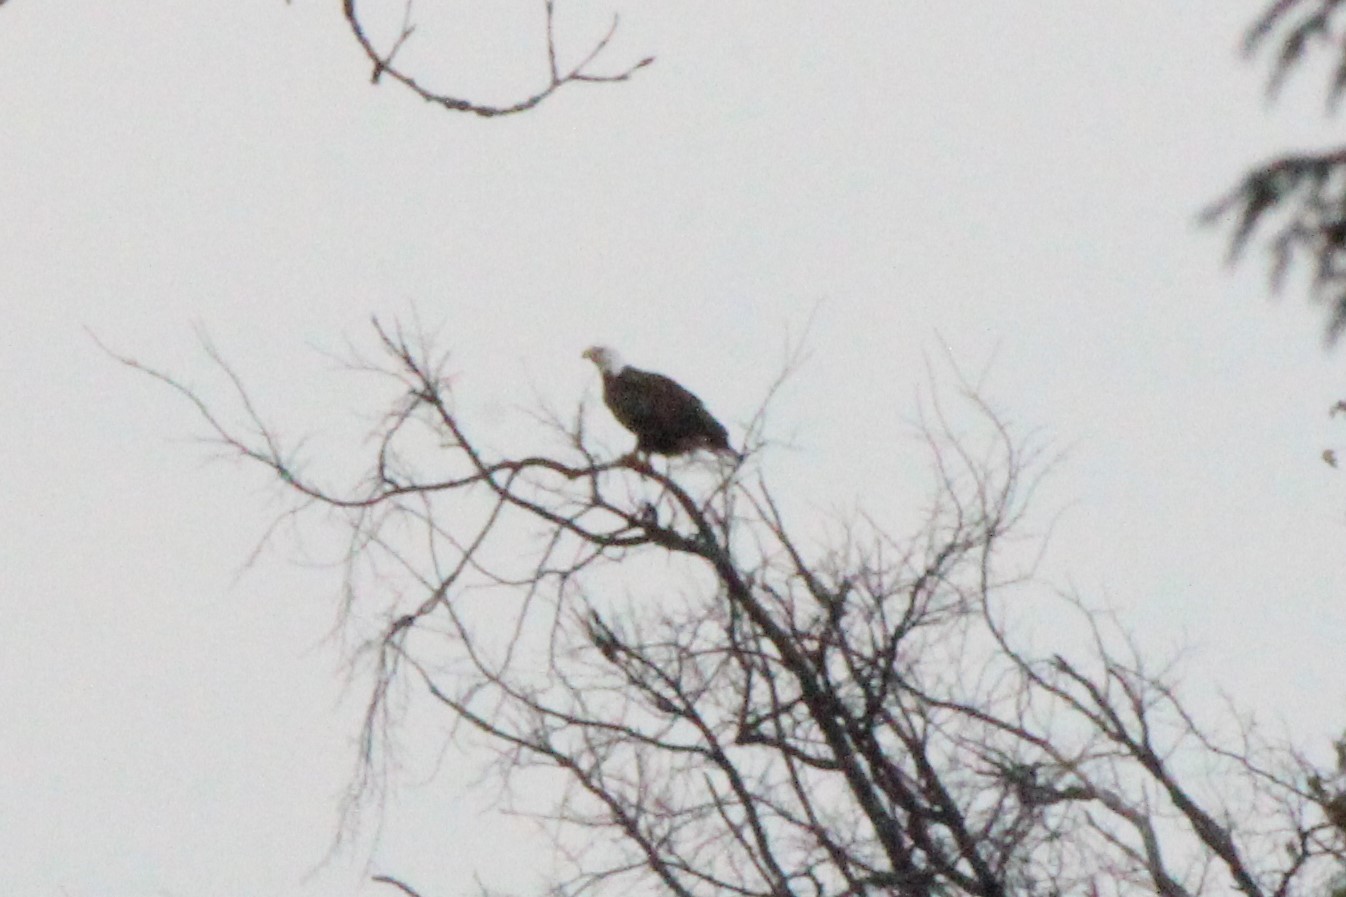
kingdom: Animalia
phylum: Chordata
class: Aves
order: Accipitriformes
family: Accipitridae
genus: Haliaeetus
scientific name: Haliaeetus leucocephalus
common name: Bald eagle
